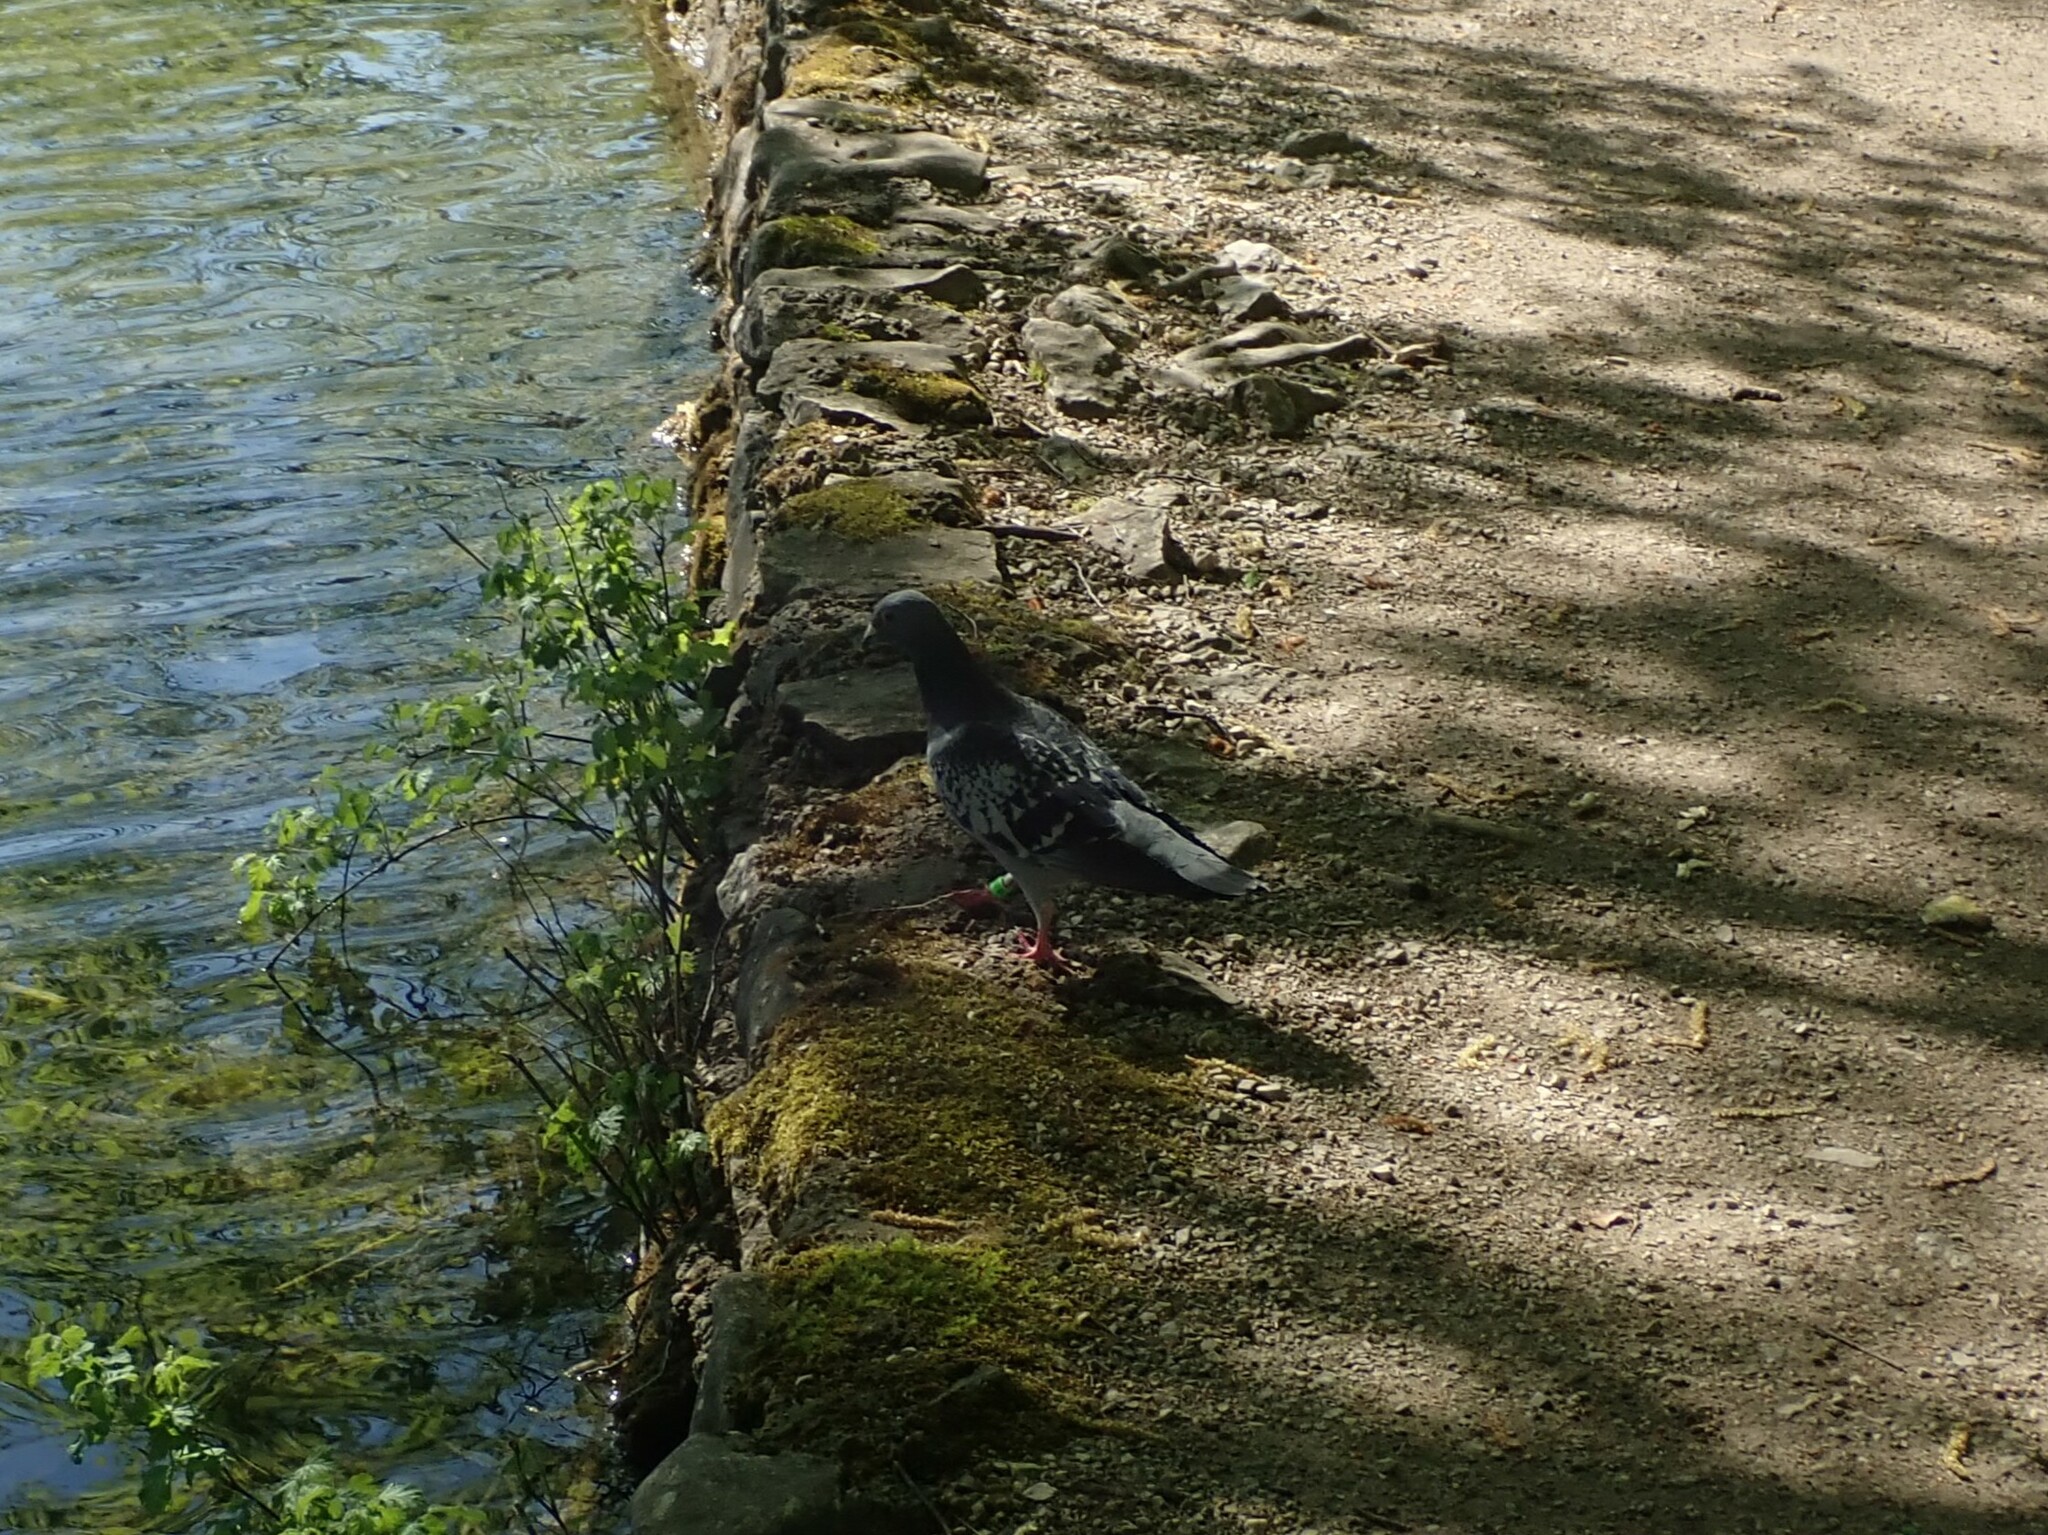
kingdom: Animalia
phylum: Chordata
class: Aves
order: Columbiformes
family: Columbidae
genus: Columba
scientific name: Columba livia
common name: Rock pigeon
